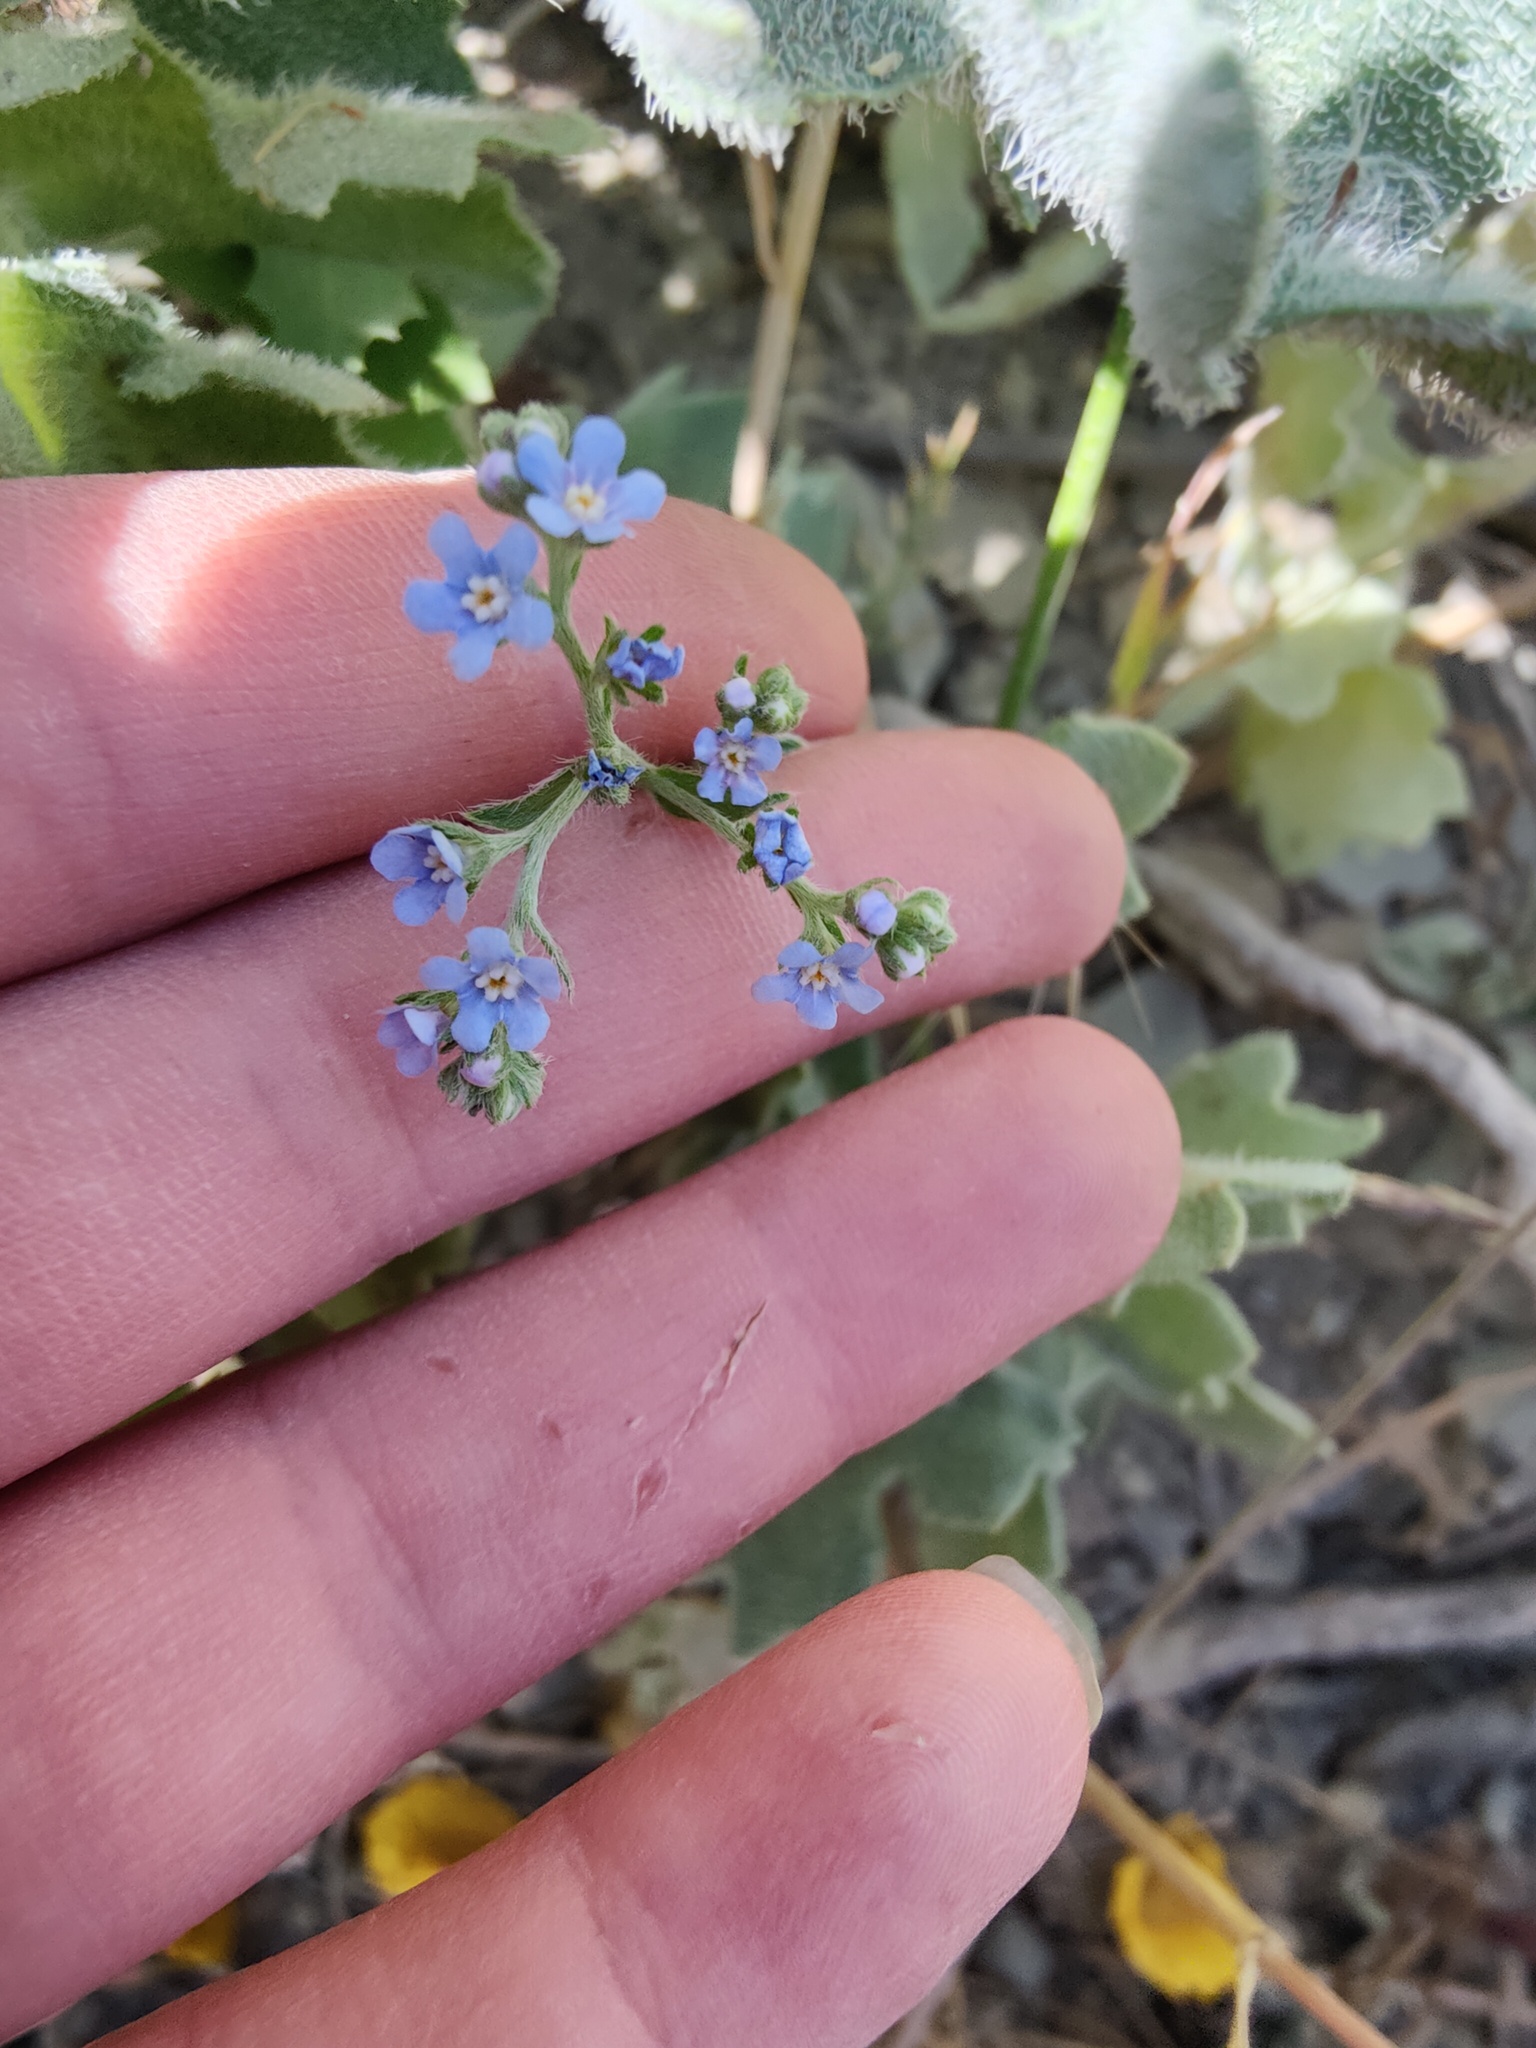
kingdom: Plantae
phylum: Tracheophyta
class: Magnoliopsida
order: Boraginales
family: Boraginaceae
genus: Lappula
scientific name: Lappula barbata
